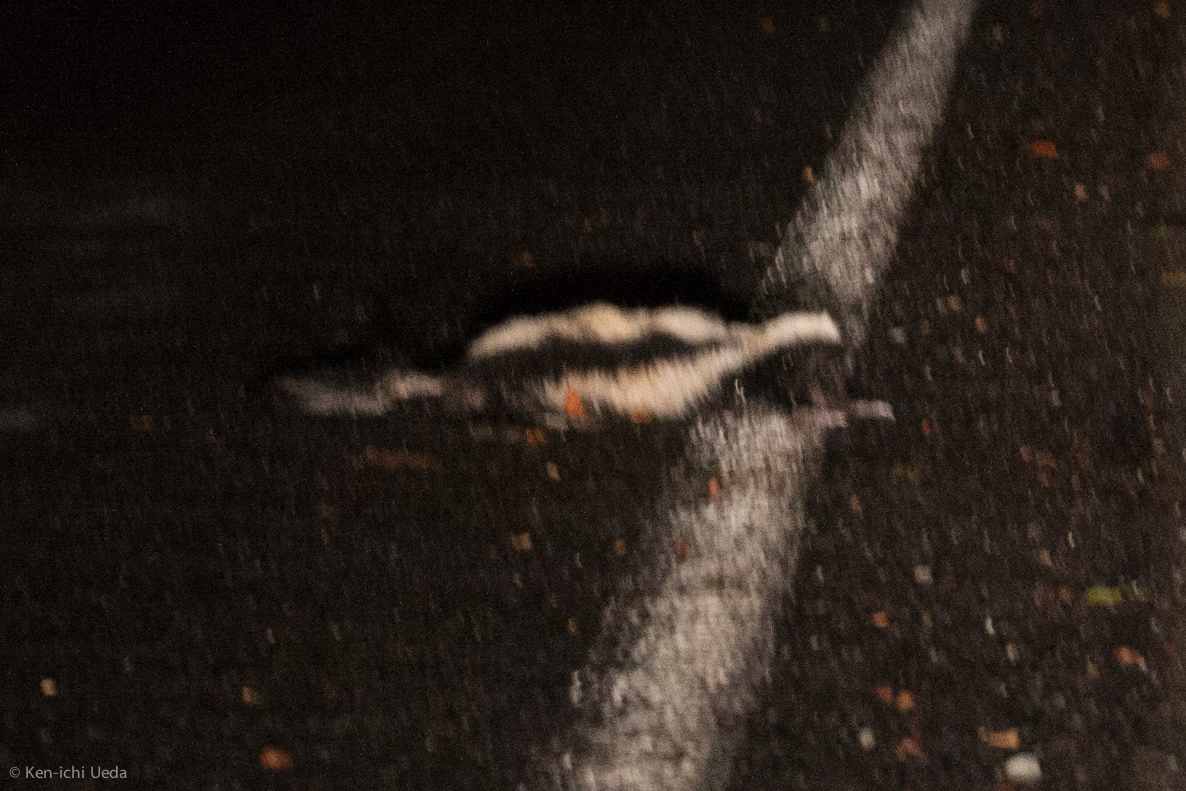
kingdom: Animalia
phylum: Chordata
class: Mammalia
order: Carnivora
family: Mephitidae
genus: Mephitis
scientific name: Mephitis mephitis
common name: Striped skunk
